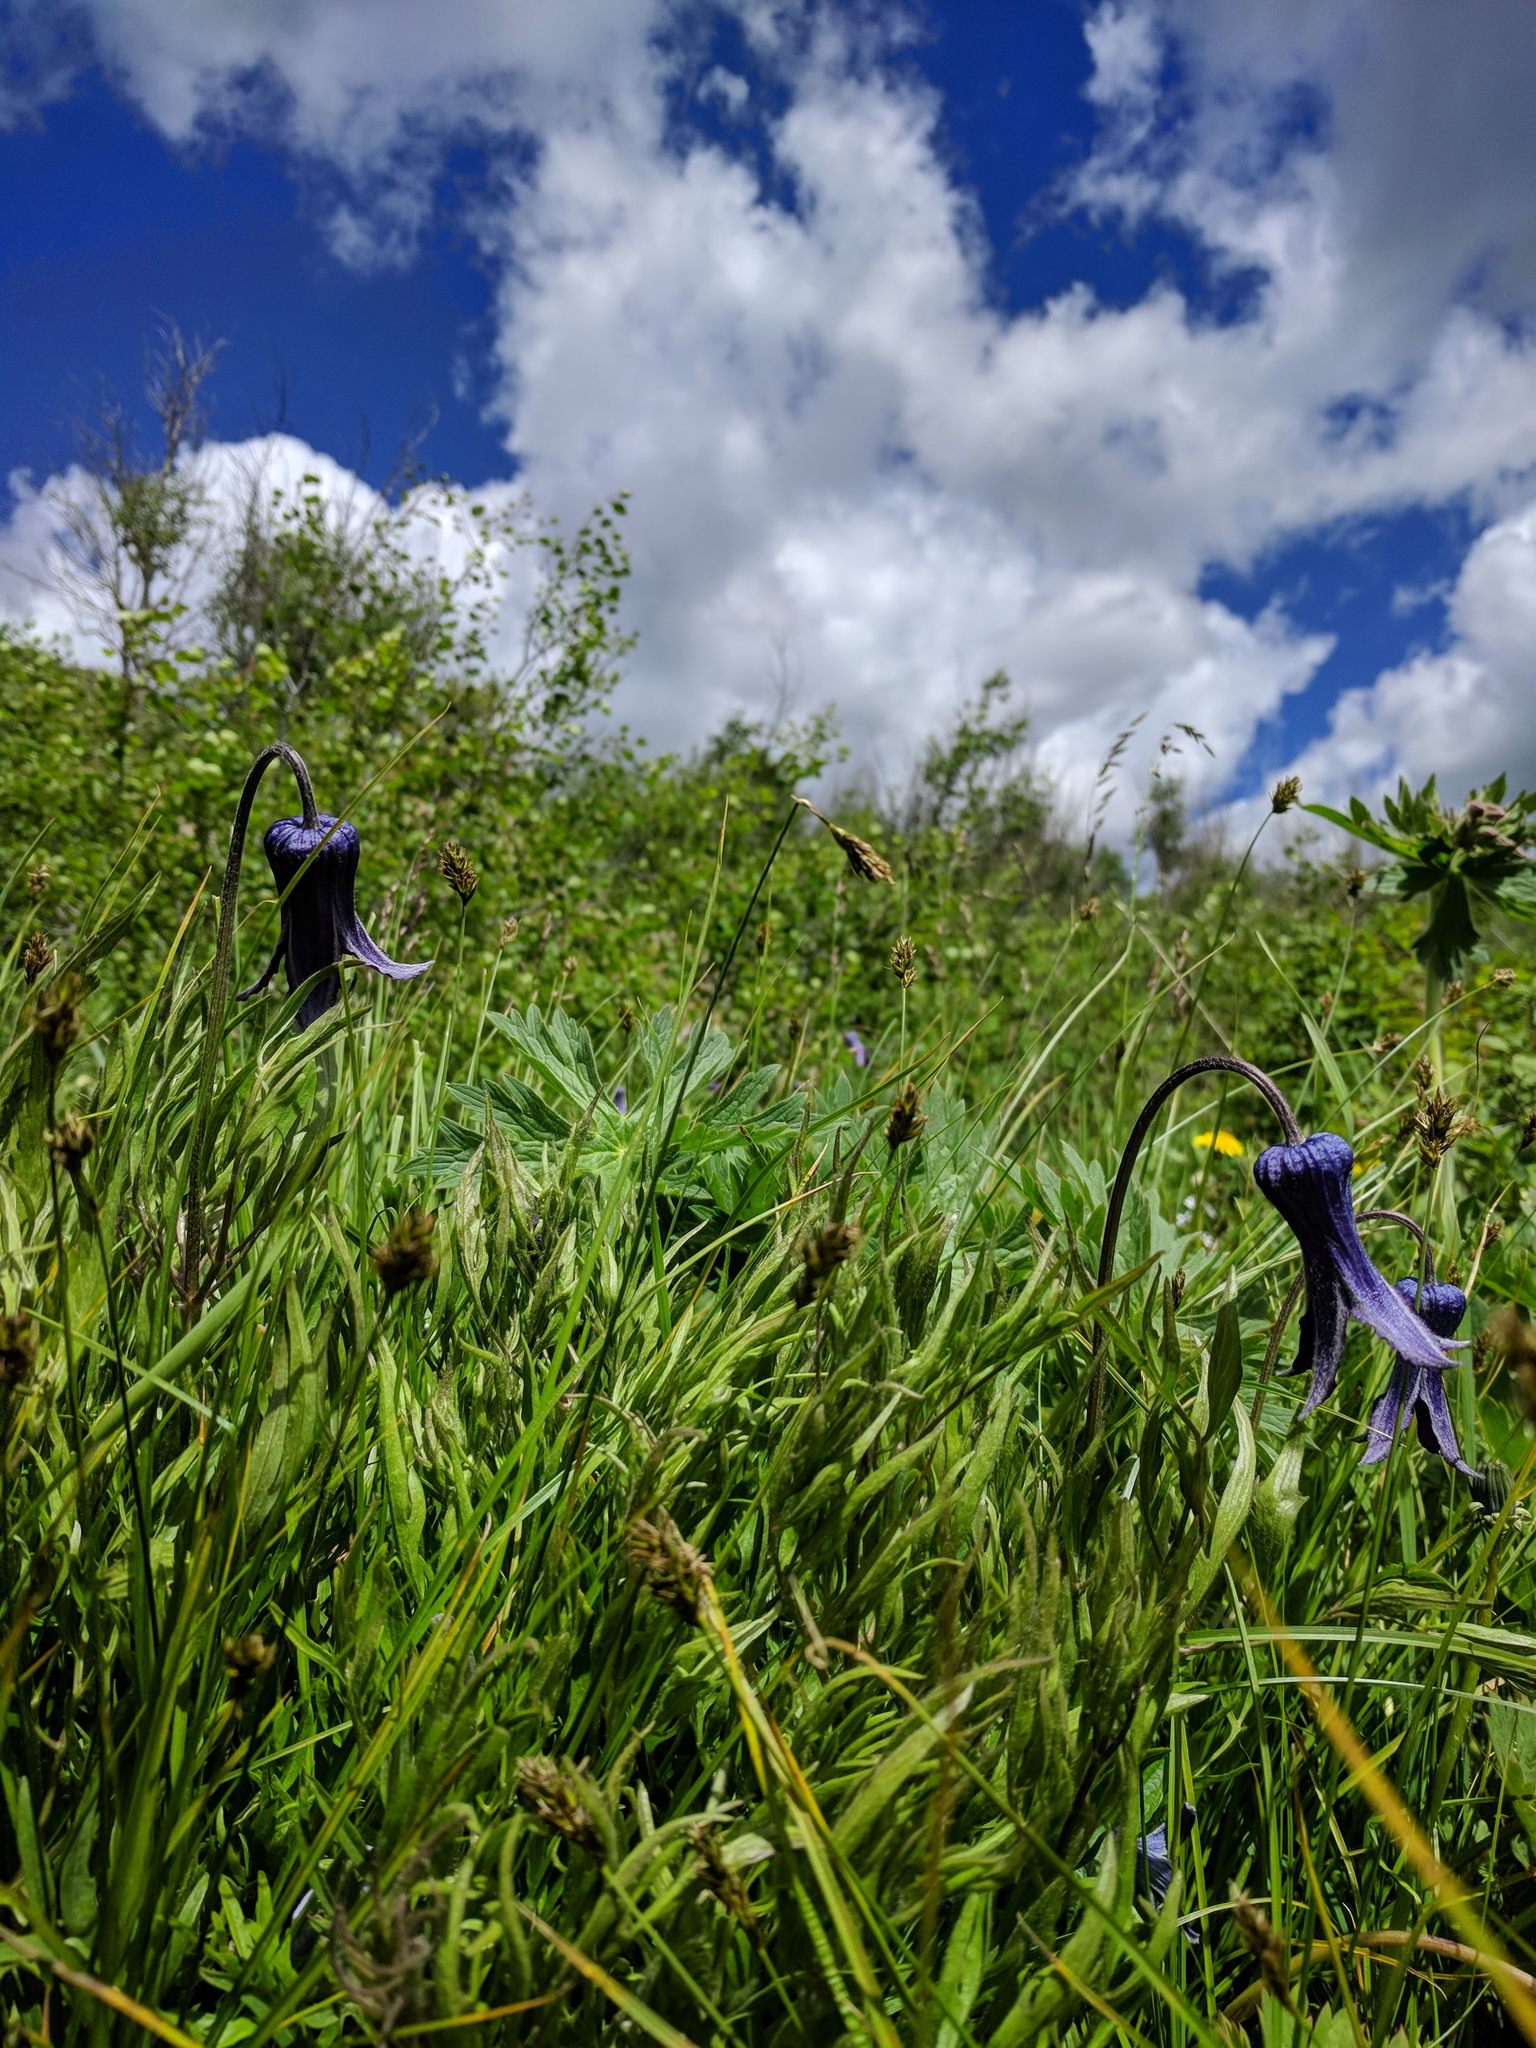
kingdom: Plantae
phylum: Tracheophyta
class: Magnoliopsida
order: Ranunculales
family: Ranunculaceae
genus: Clematis
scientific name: Clematis hirsutissima
